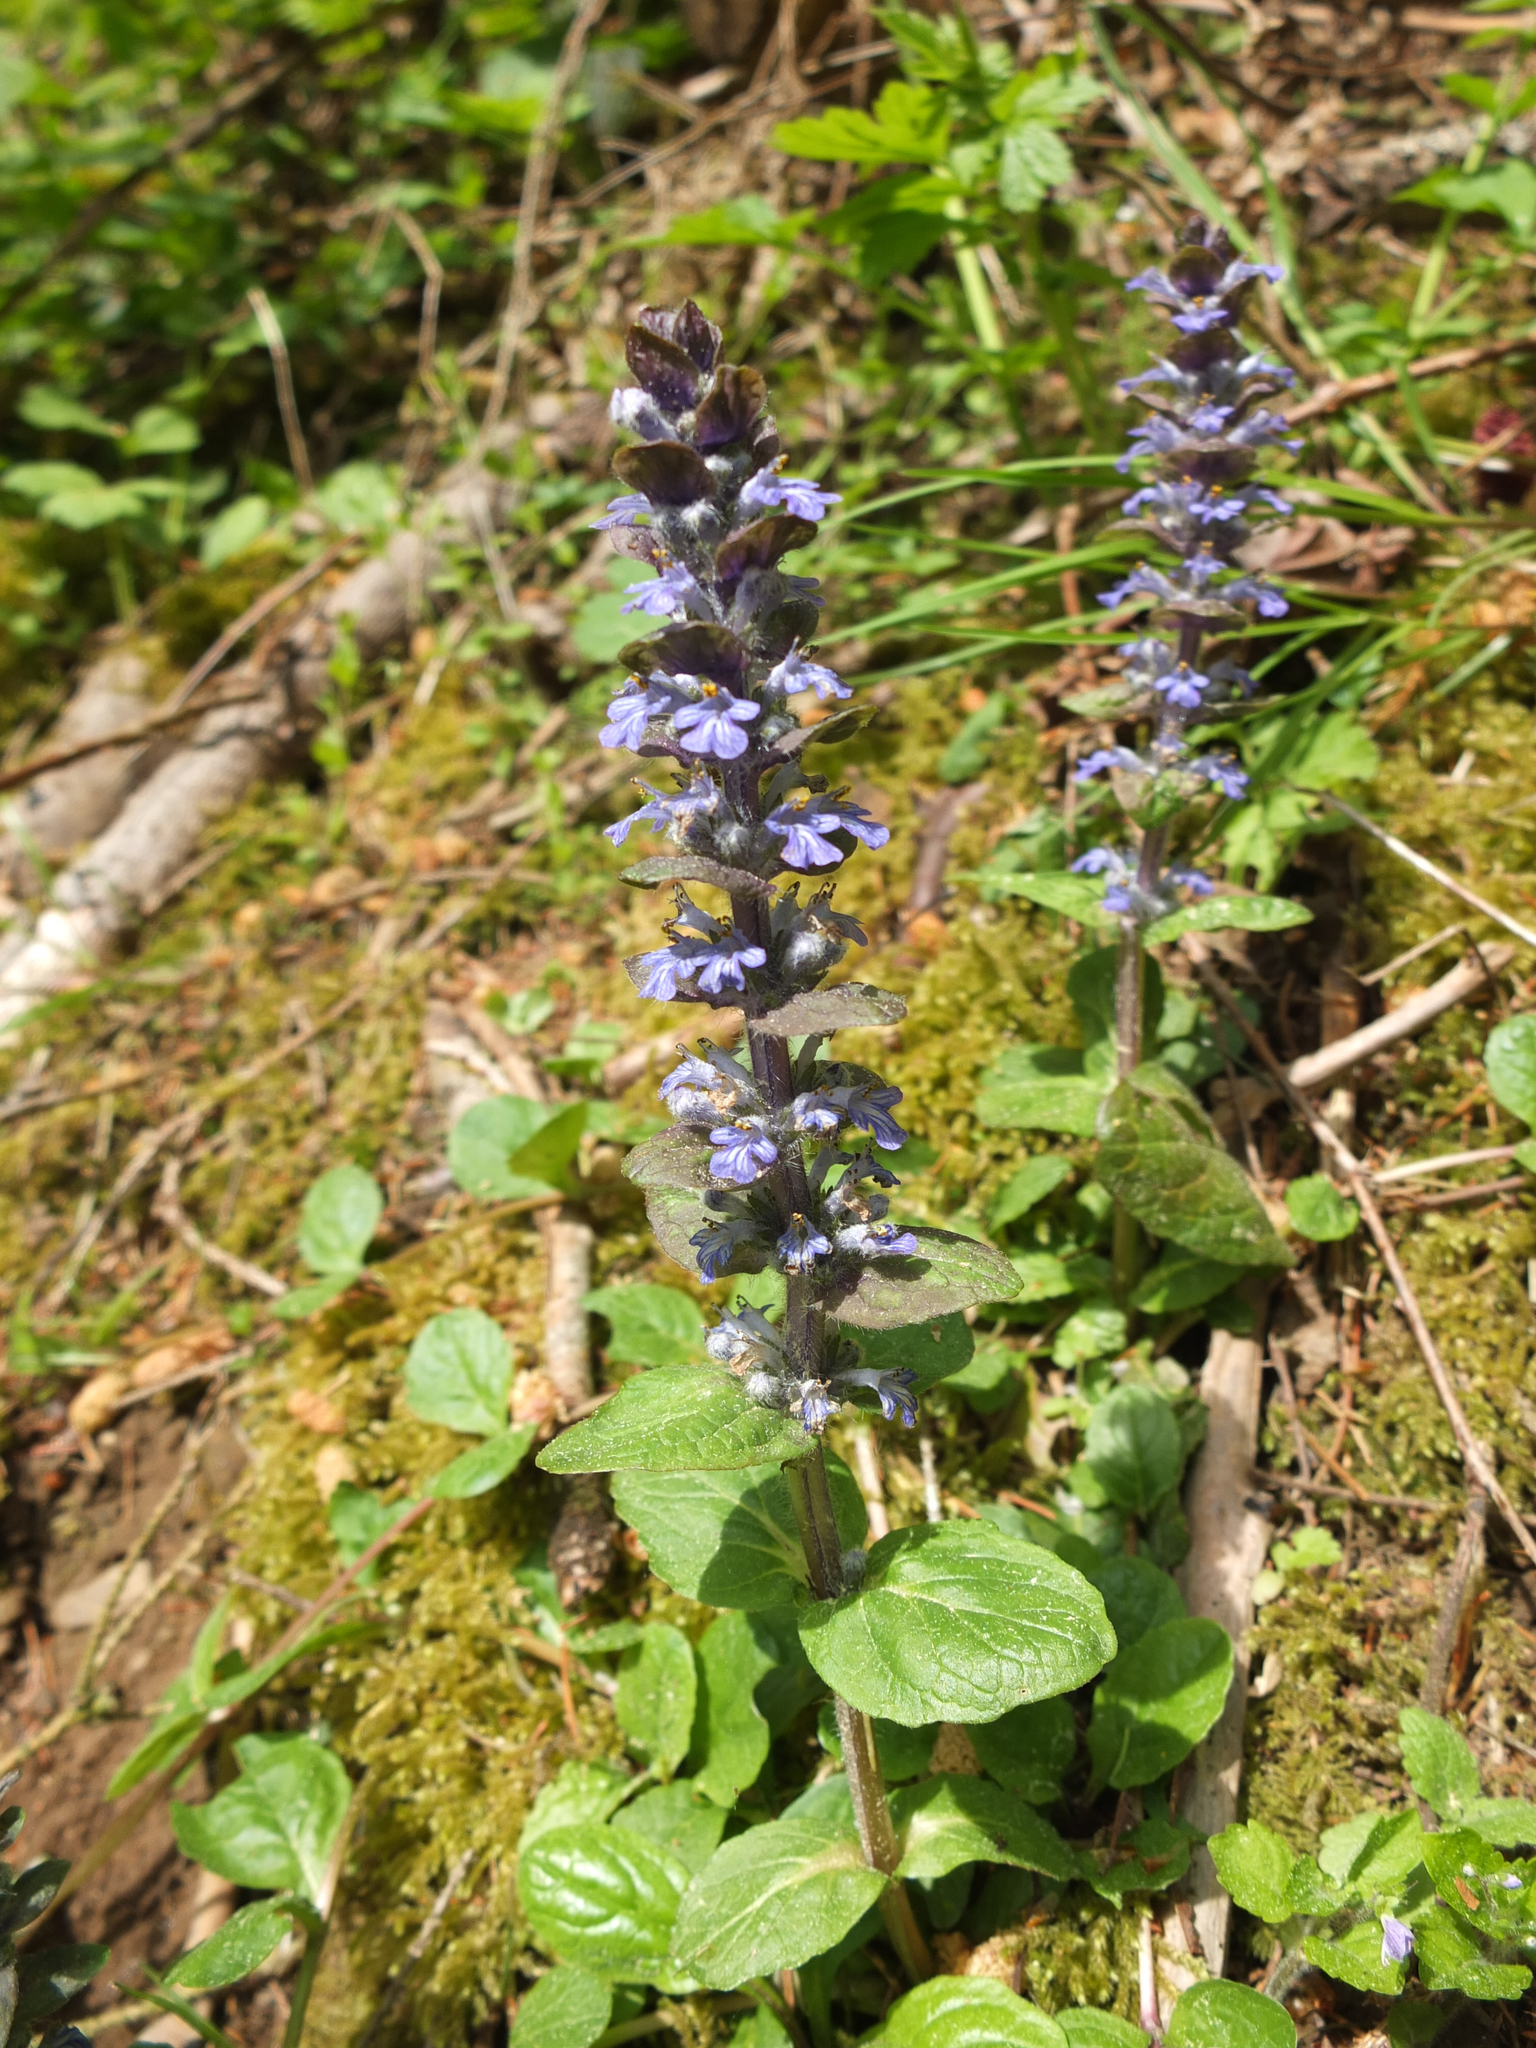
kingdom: Plantae
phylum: Tracheophyta
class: Magnoliopsida
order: Lamiales
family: Lamiaceae
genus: Ajuga
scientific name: Ajuga reptans
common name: Bugle
